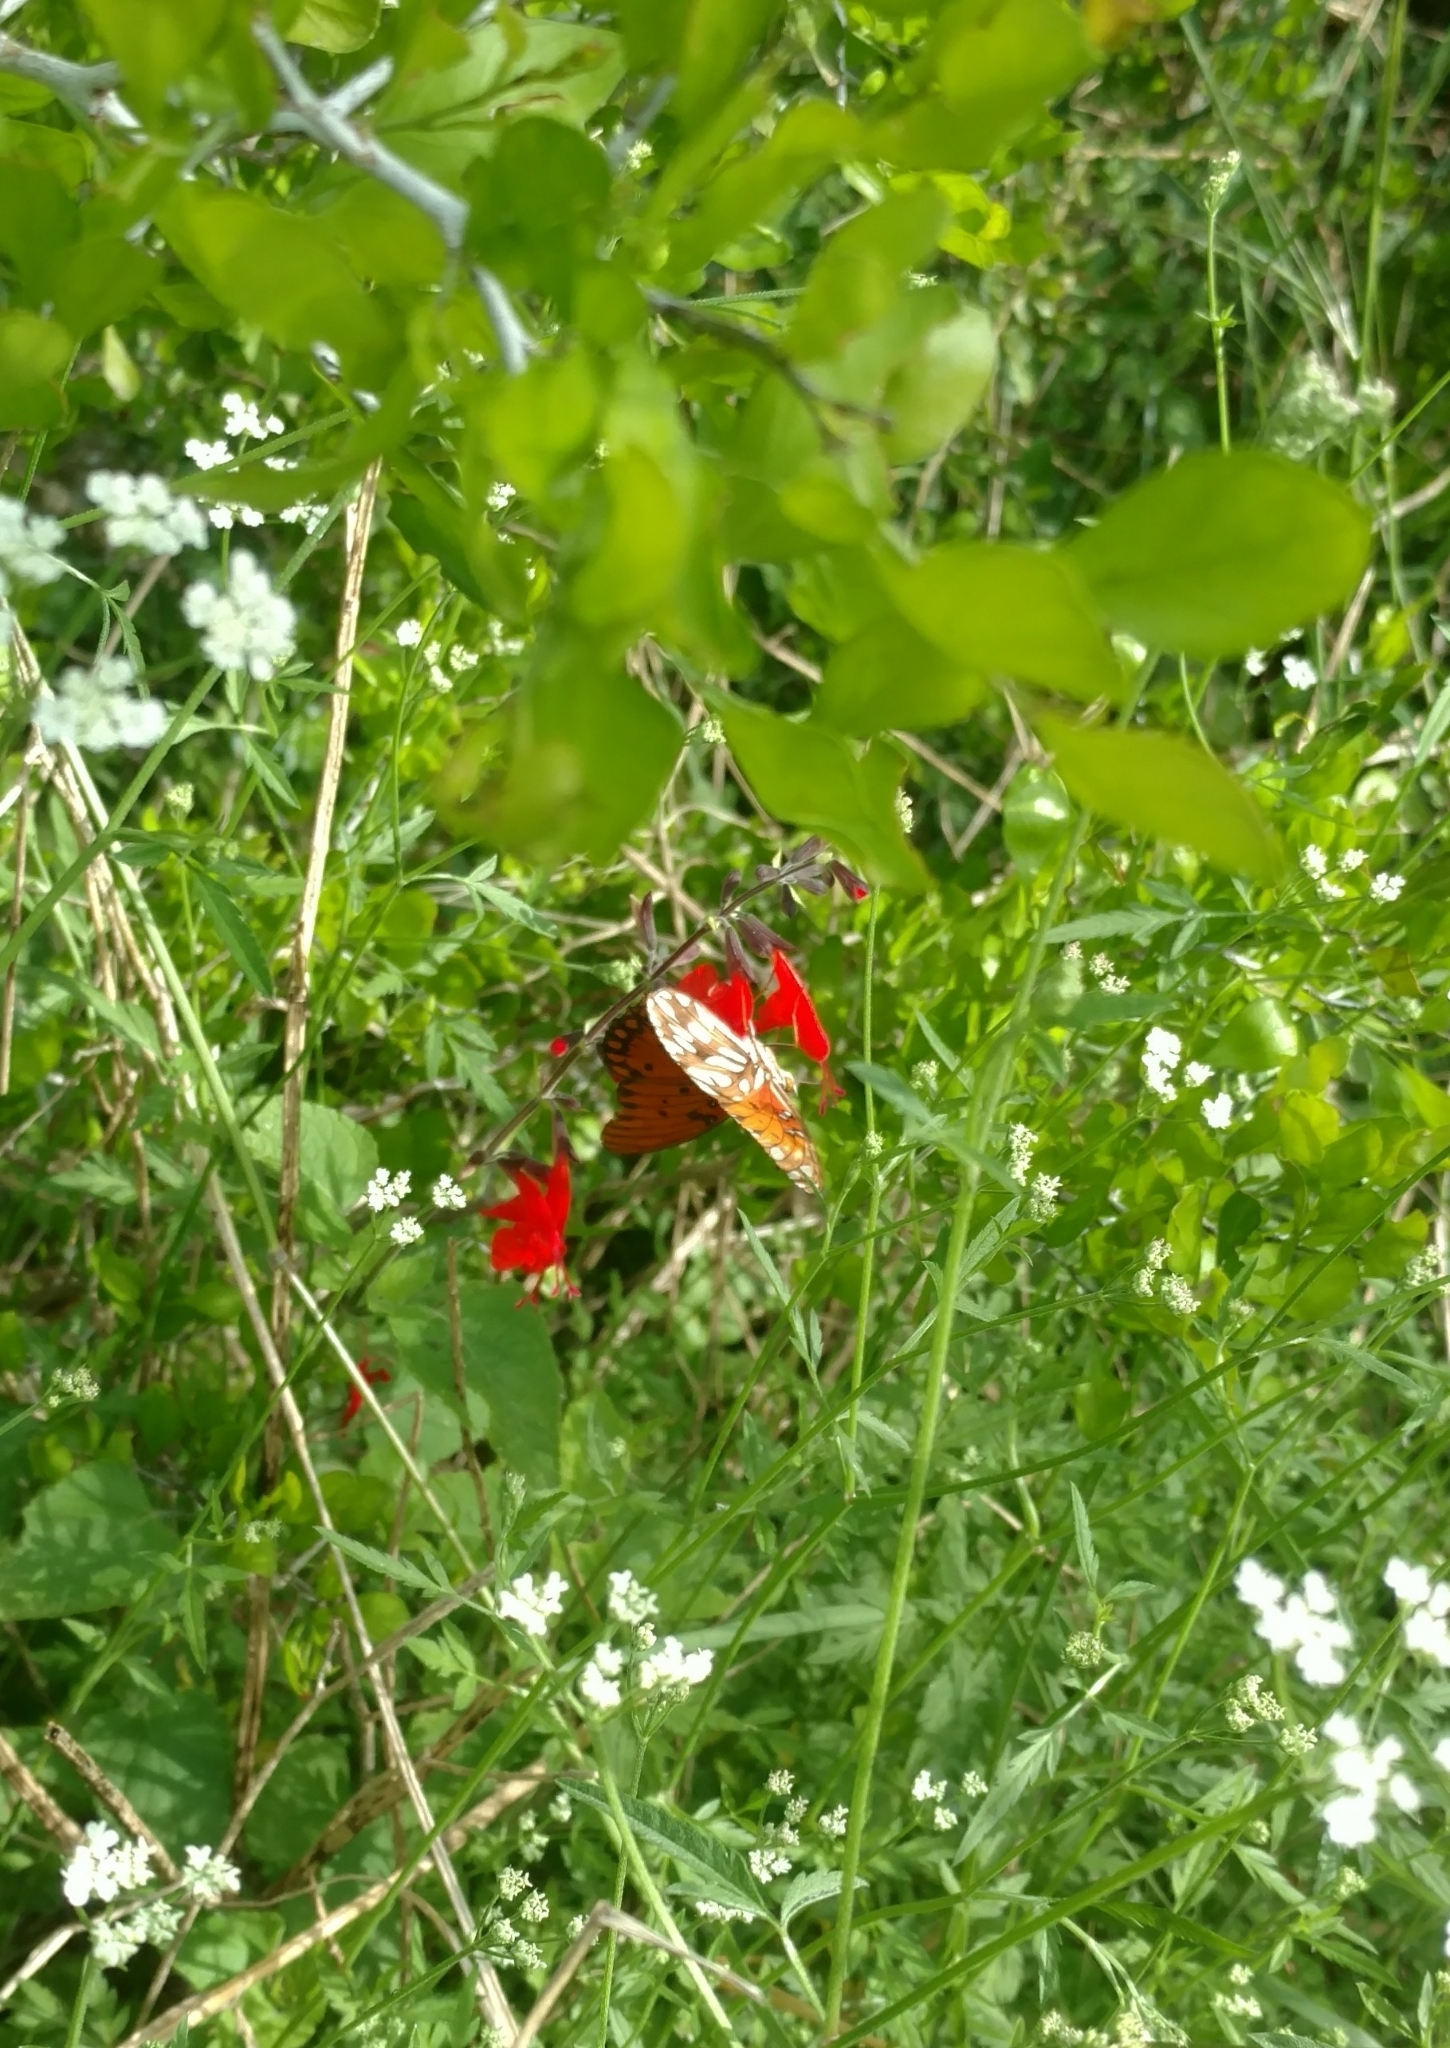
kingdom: Animalia
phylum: Arthropoda
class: Insecta
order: Lepidoptera
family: Nymphalidae
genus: Dione
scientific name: Dione vanillae
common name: Gulf fritillary
